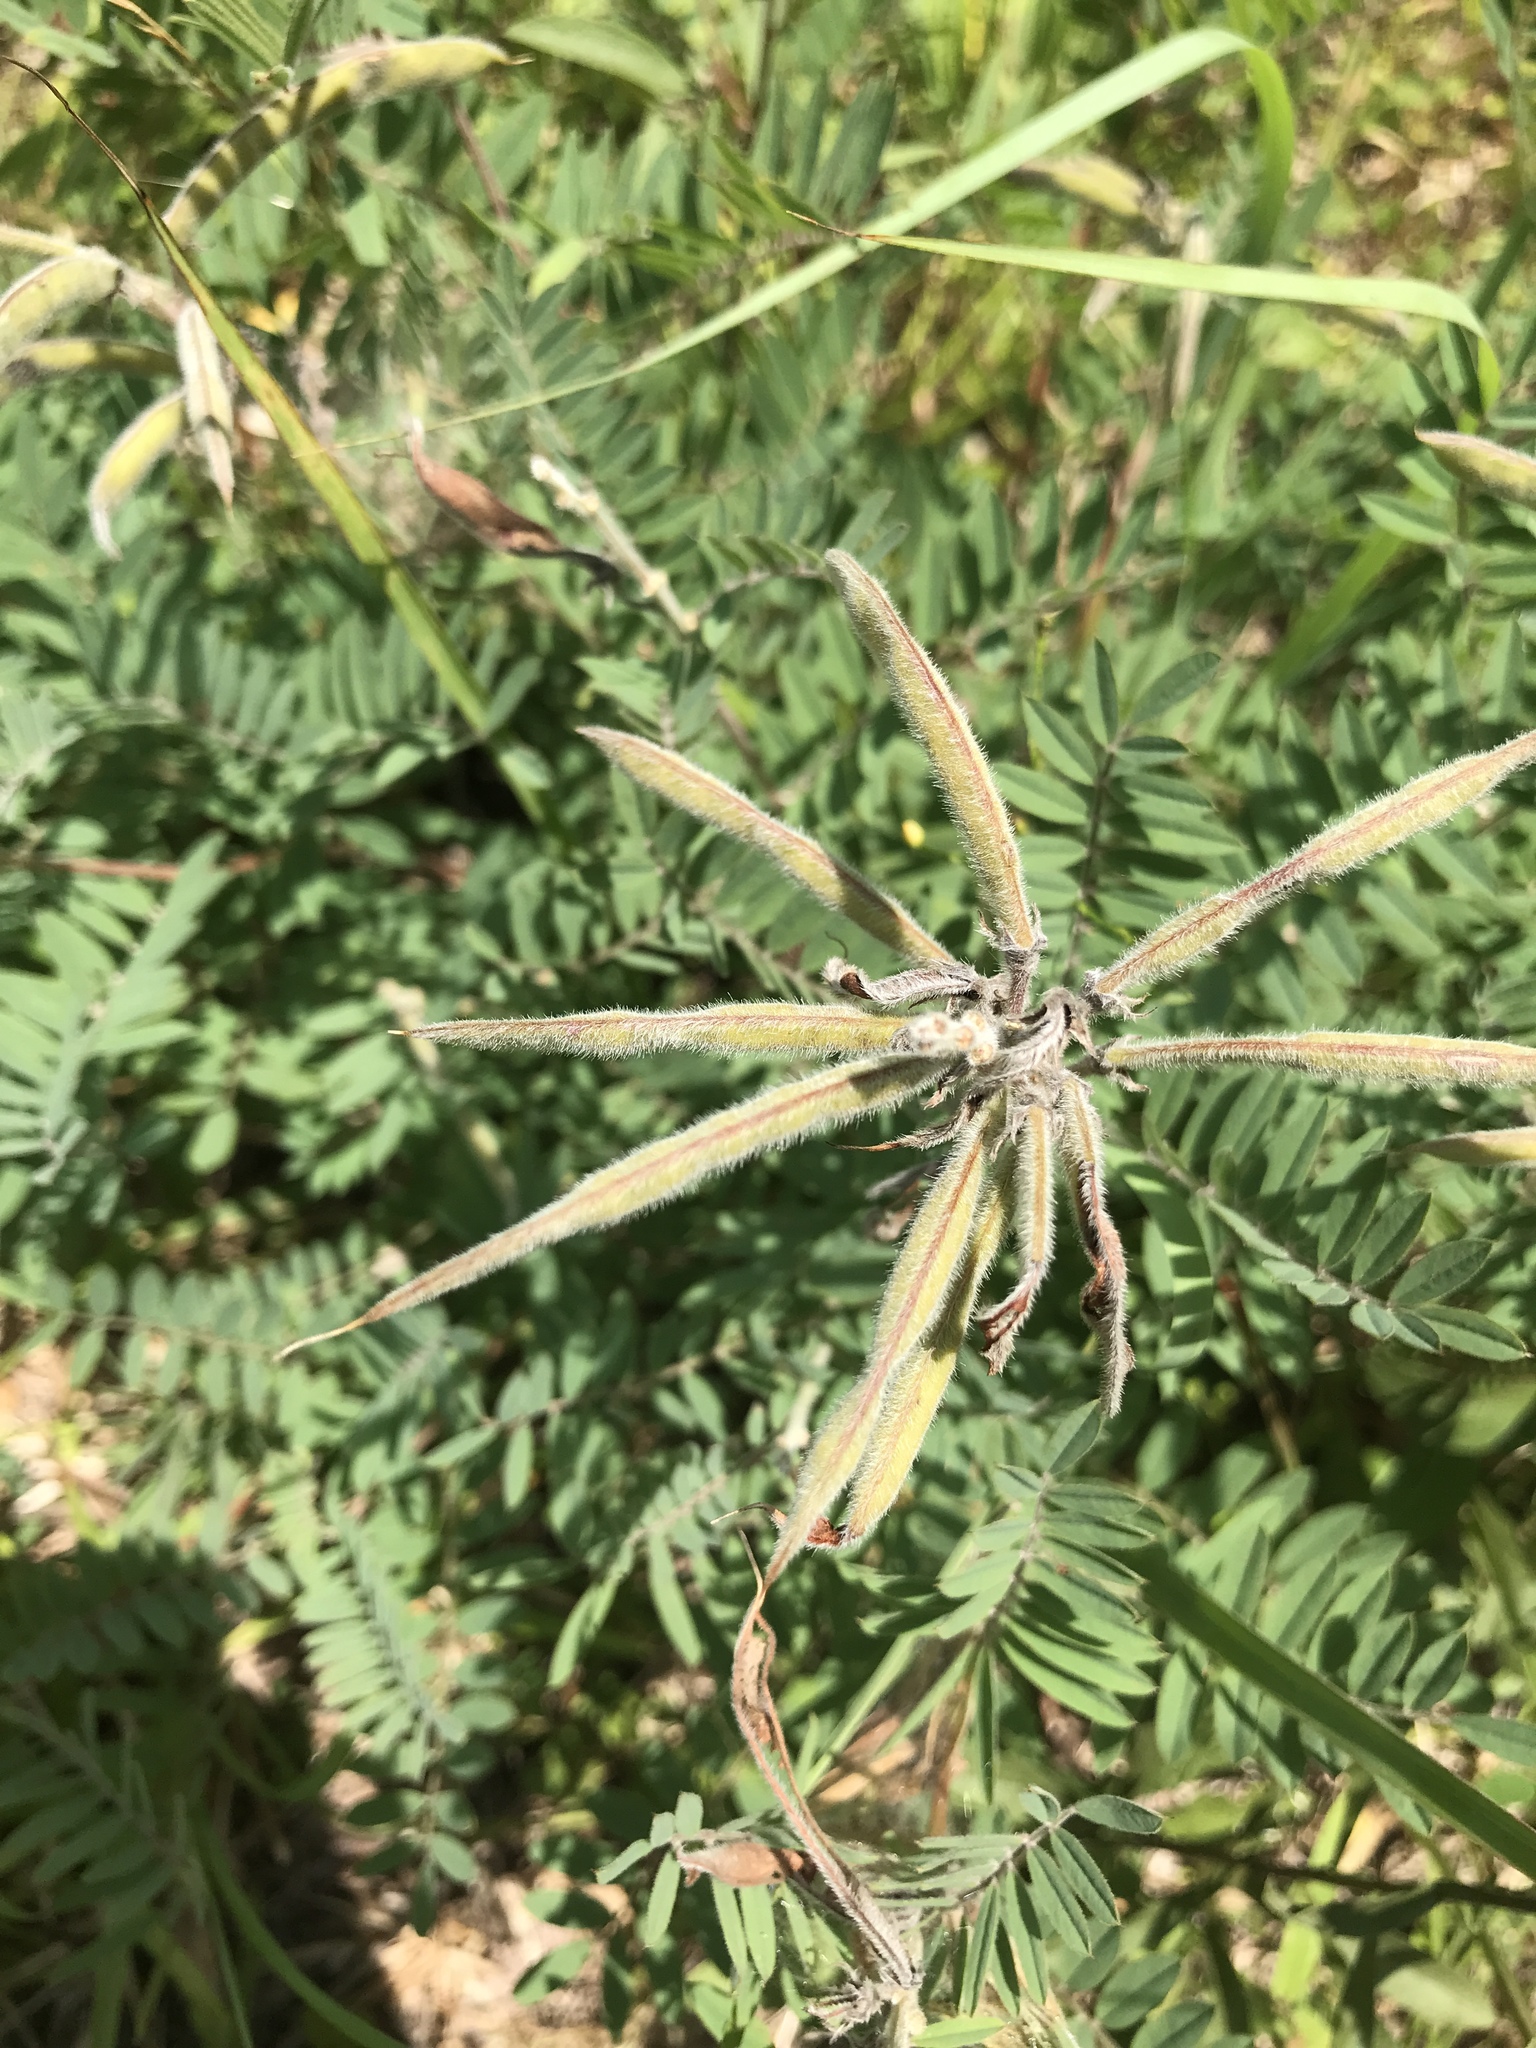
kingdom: Plantae
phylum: Tracheophyta
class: Magnoliopsida
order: Fabales
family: Fabaceae
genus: Tephrosia
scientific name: Tephrosia virginiana
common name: Rabbit-pea
